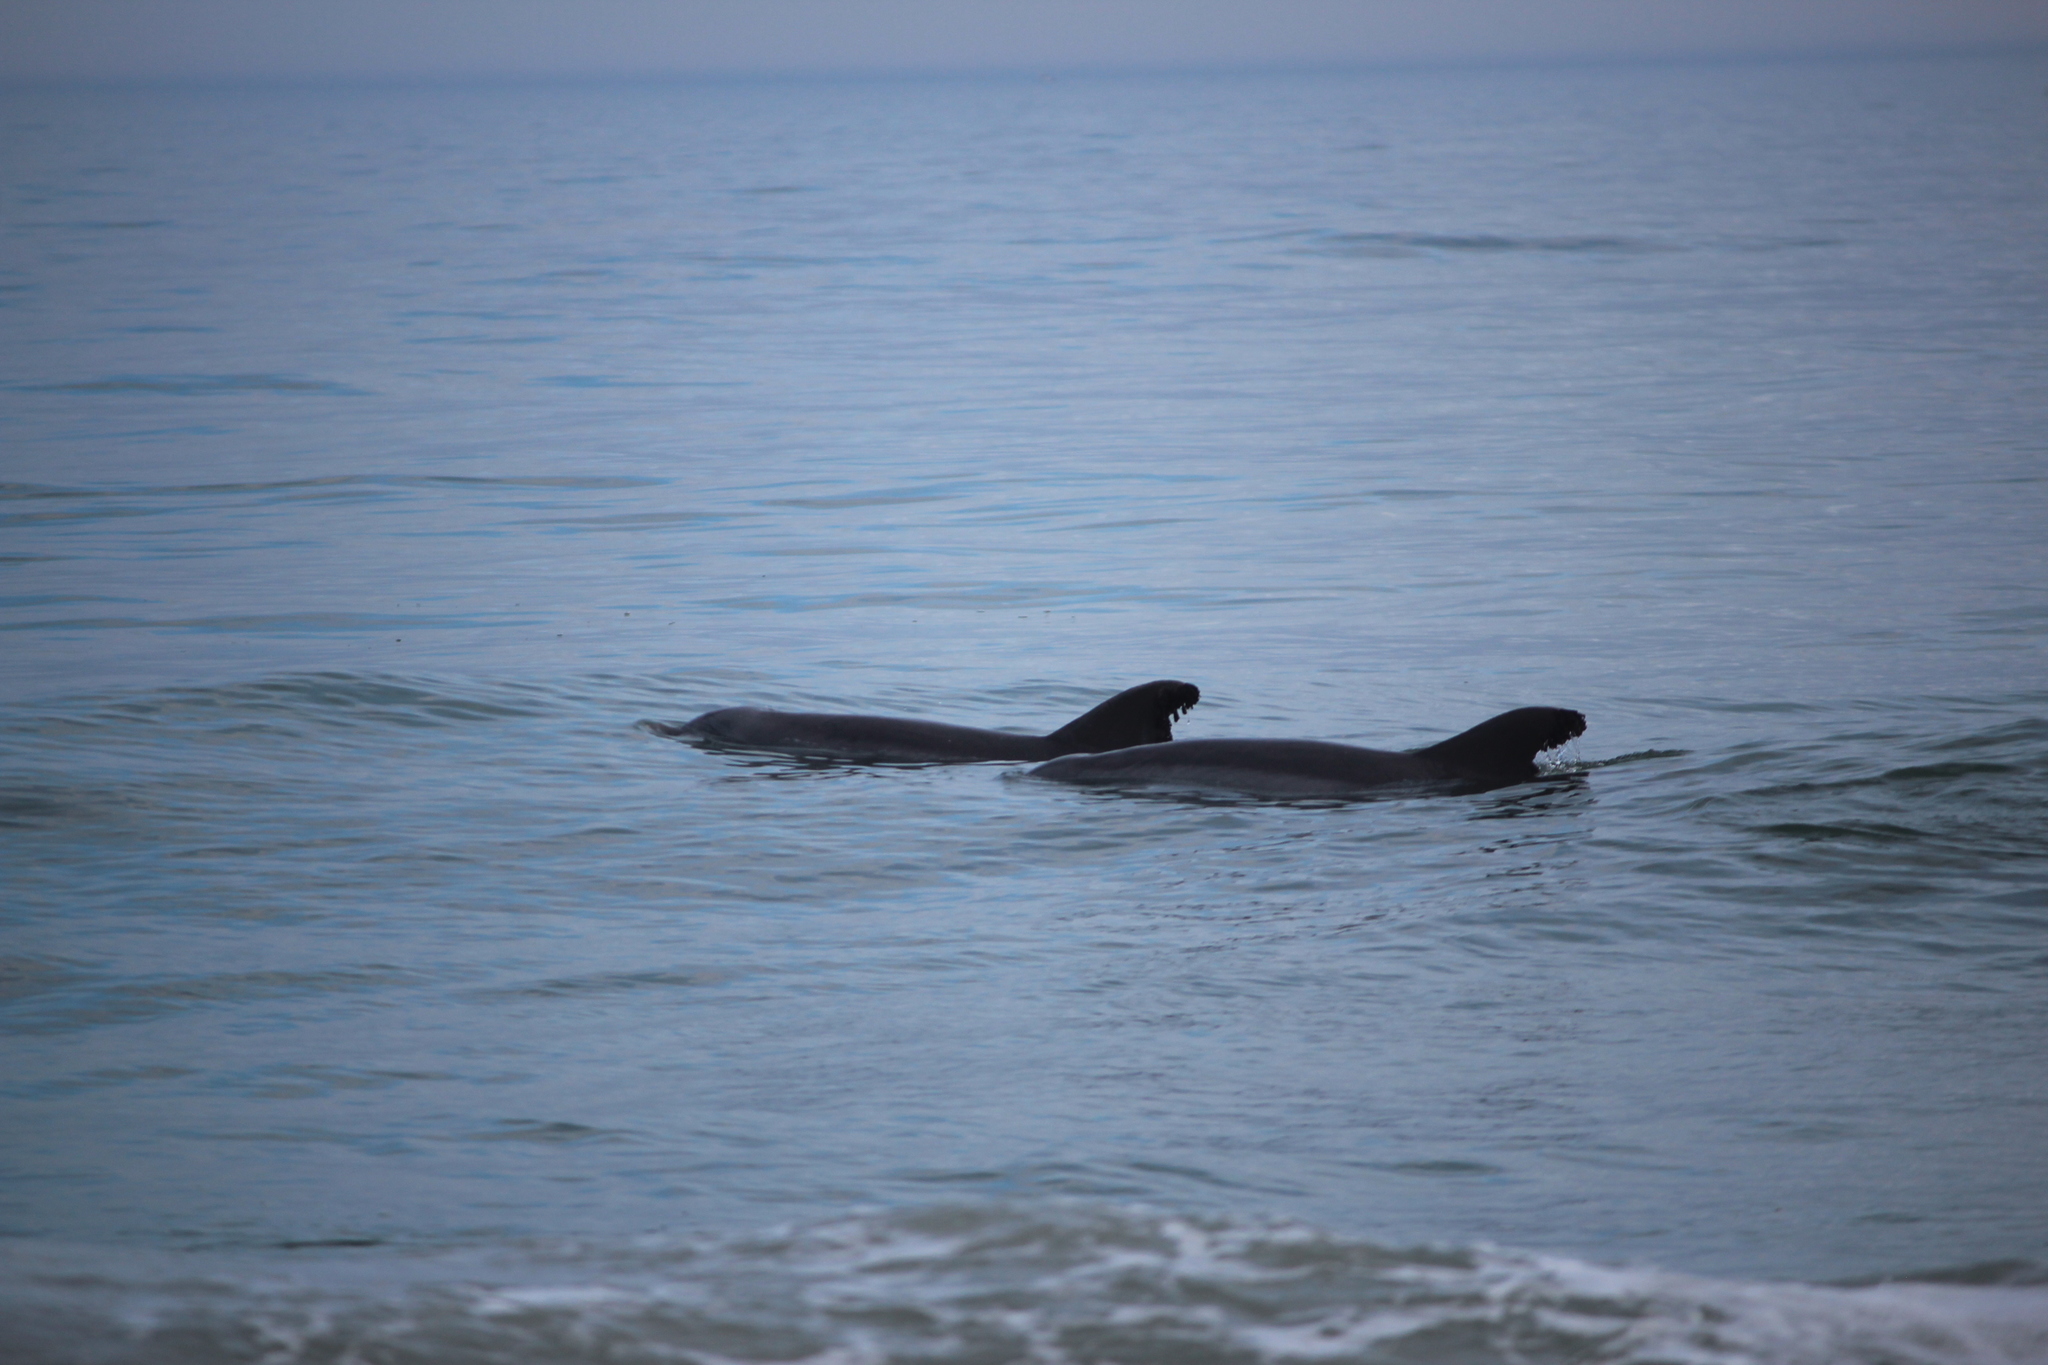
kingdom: Animalia
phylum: Chordata
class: Mammalia
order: Cetacea
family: Delphinidae
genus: Tursiops
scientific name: Tursiops truncatus
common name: Bottlenose dolphin
